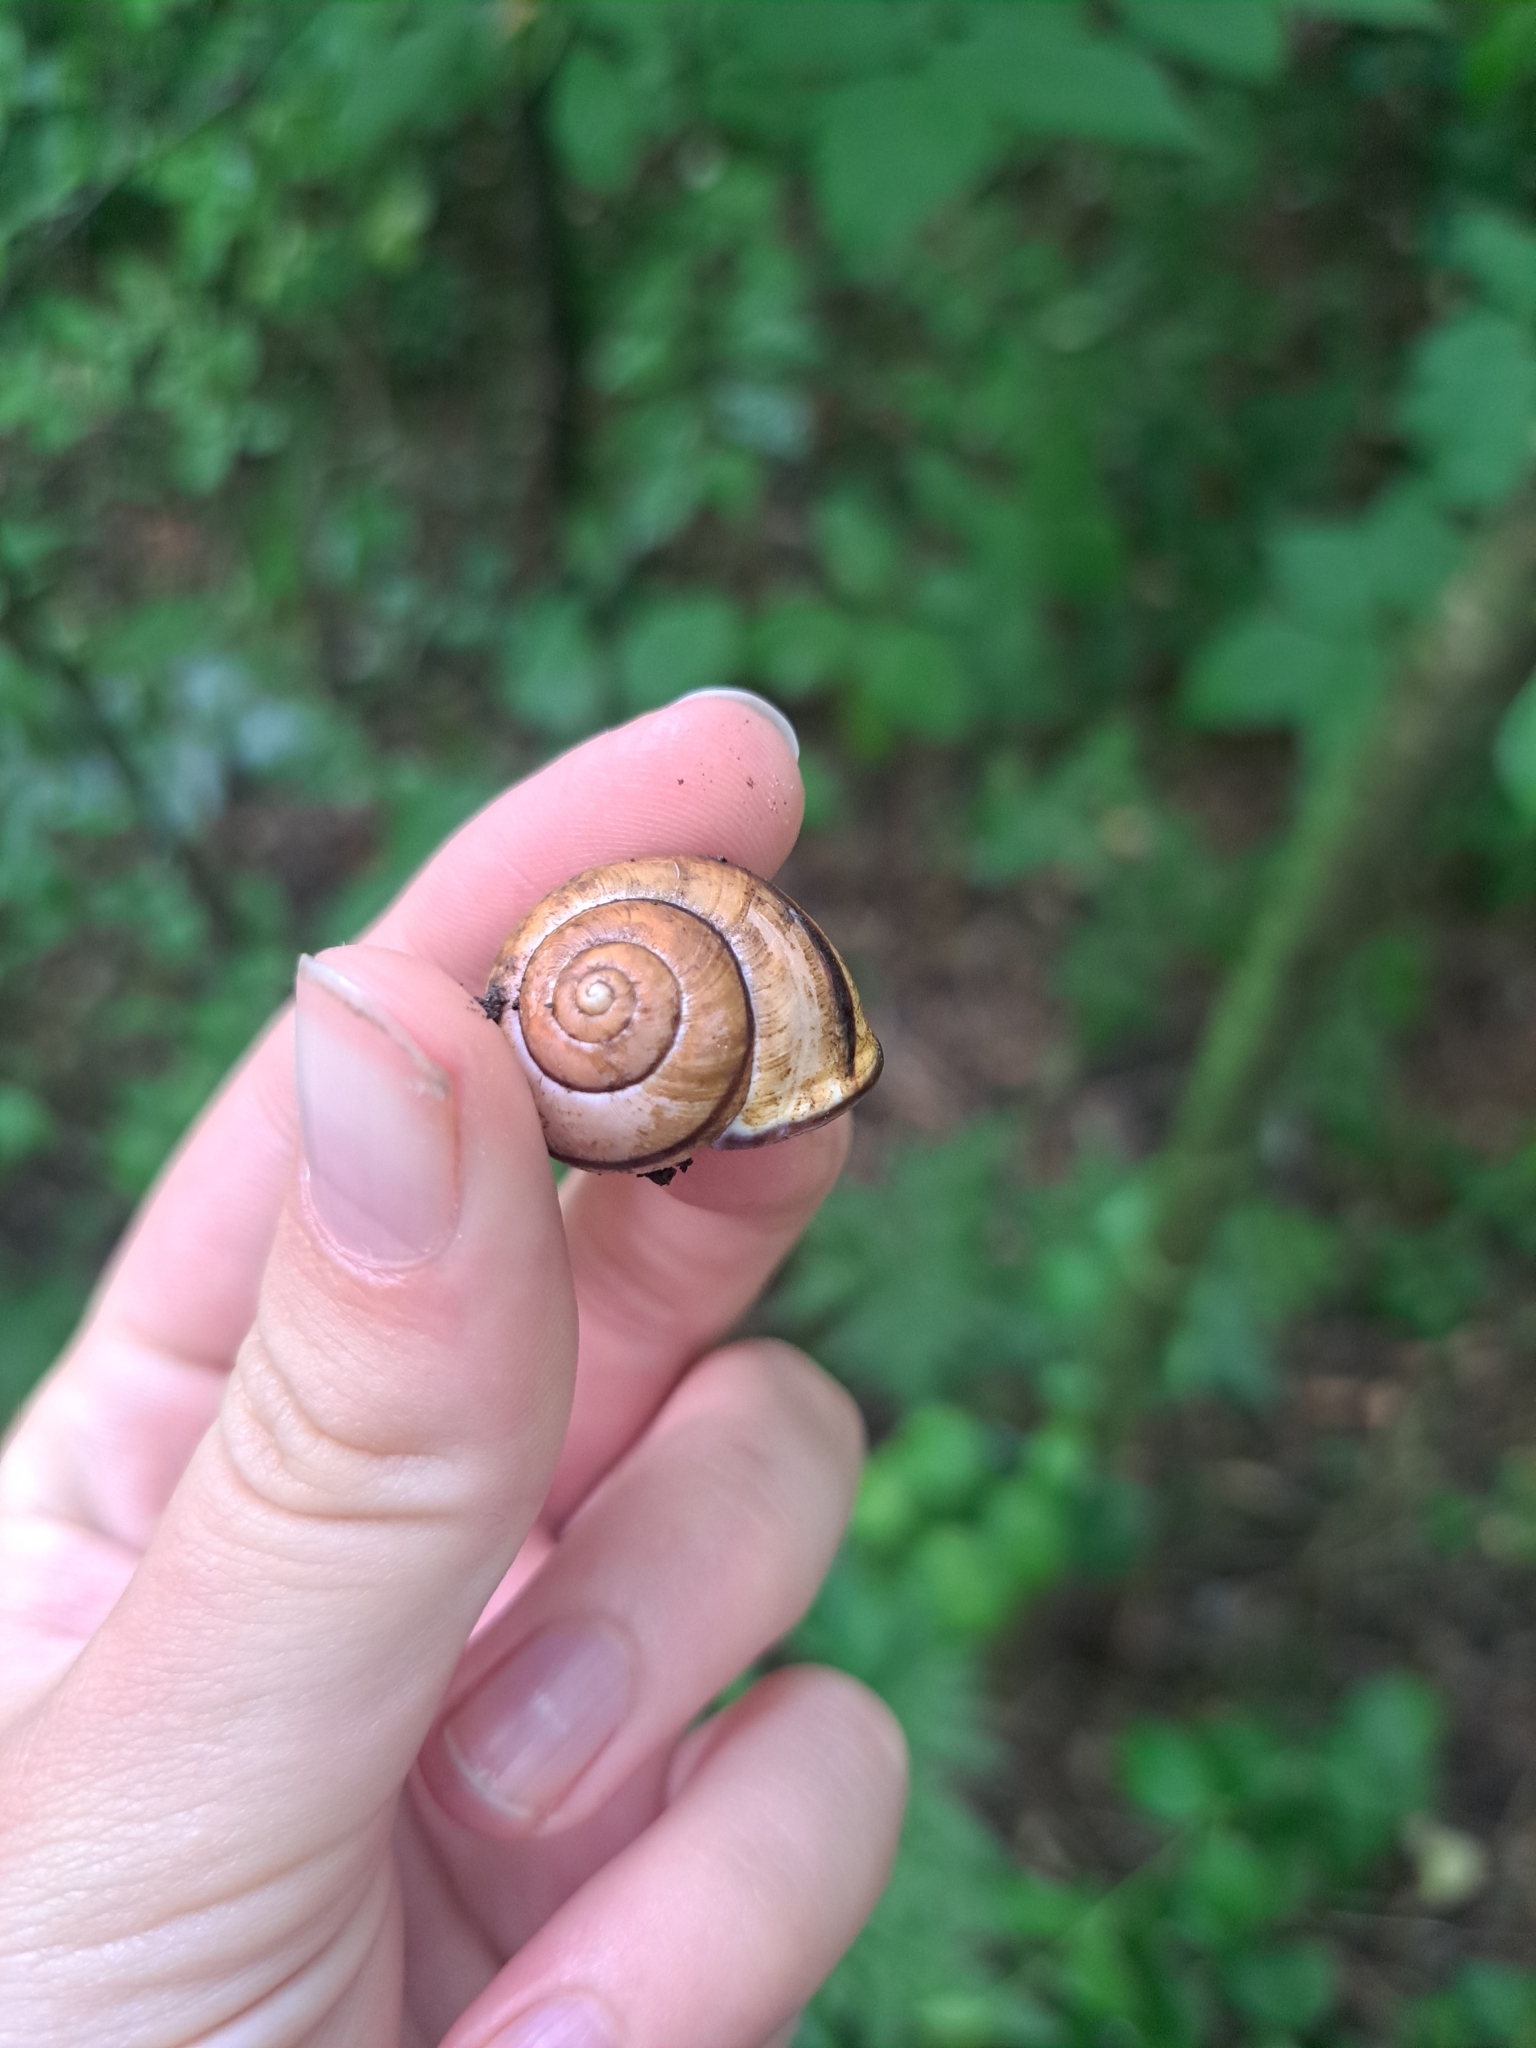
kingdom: Animalia
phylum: Mollusca
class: Gastropoda
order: Stylommatophora
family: Helicidae
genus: Cepaea
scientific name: Cepaea nemoralis
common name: Grovesnail
